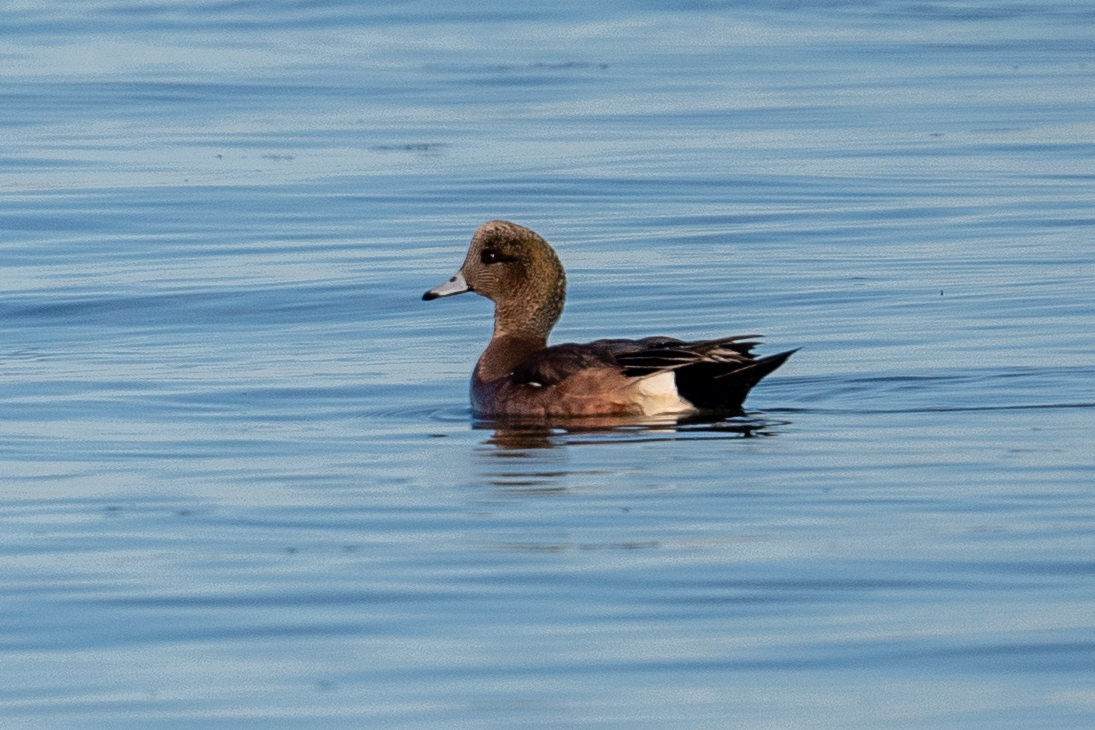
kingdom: Animalia
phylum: Chordata
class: Aves
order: Anseriformes
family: Anatidae
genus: Mareca
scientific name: Mareca americana
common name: American wigeon
